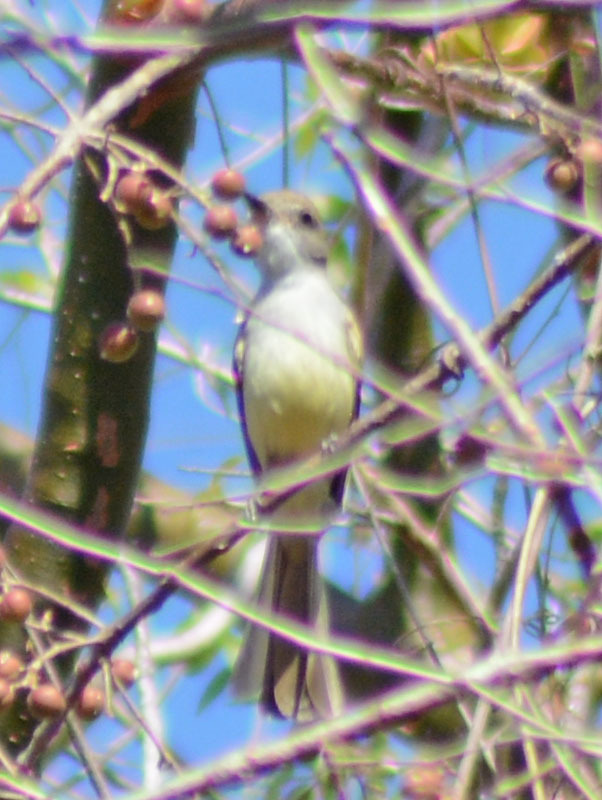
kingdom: Animalia
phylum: Chordata
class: Aves
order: Passeriformes
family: Tyrannidae
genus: Myiarchus
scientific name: Myiarchus nuttingi
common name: Nutting's flycatcher
